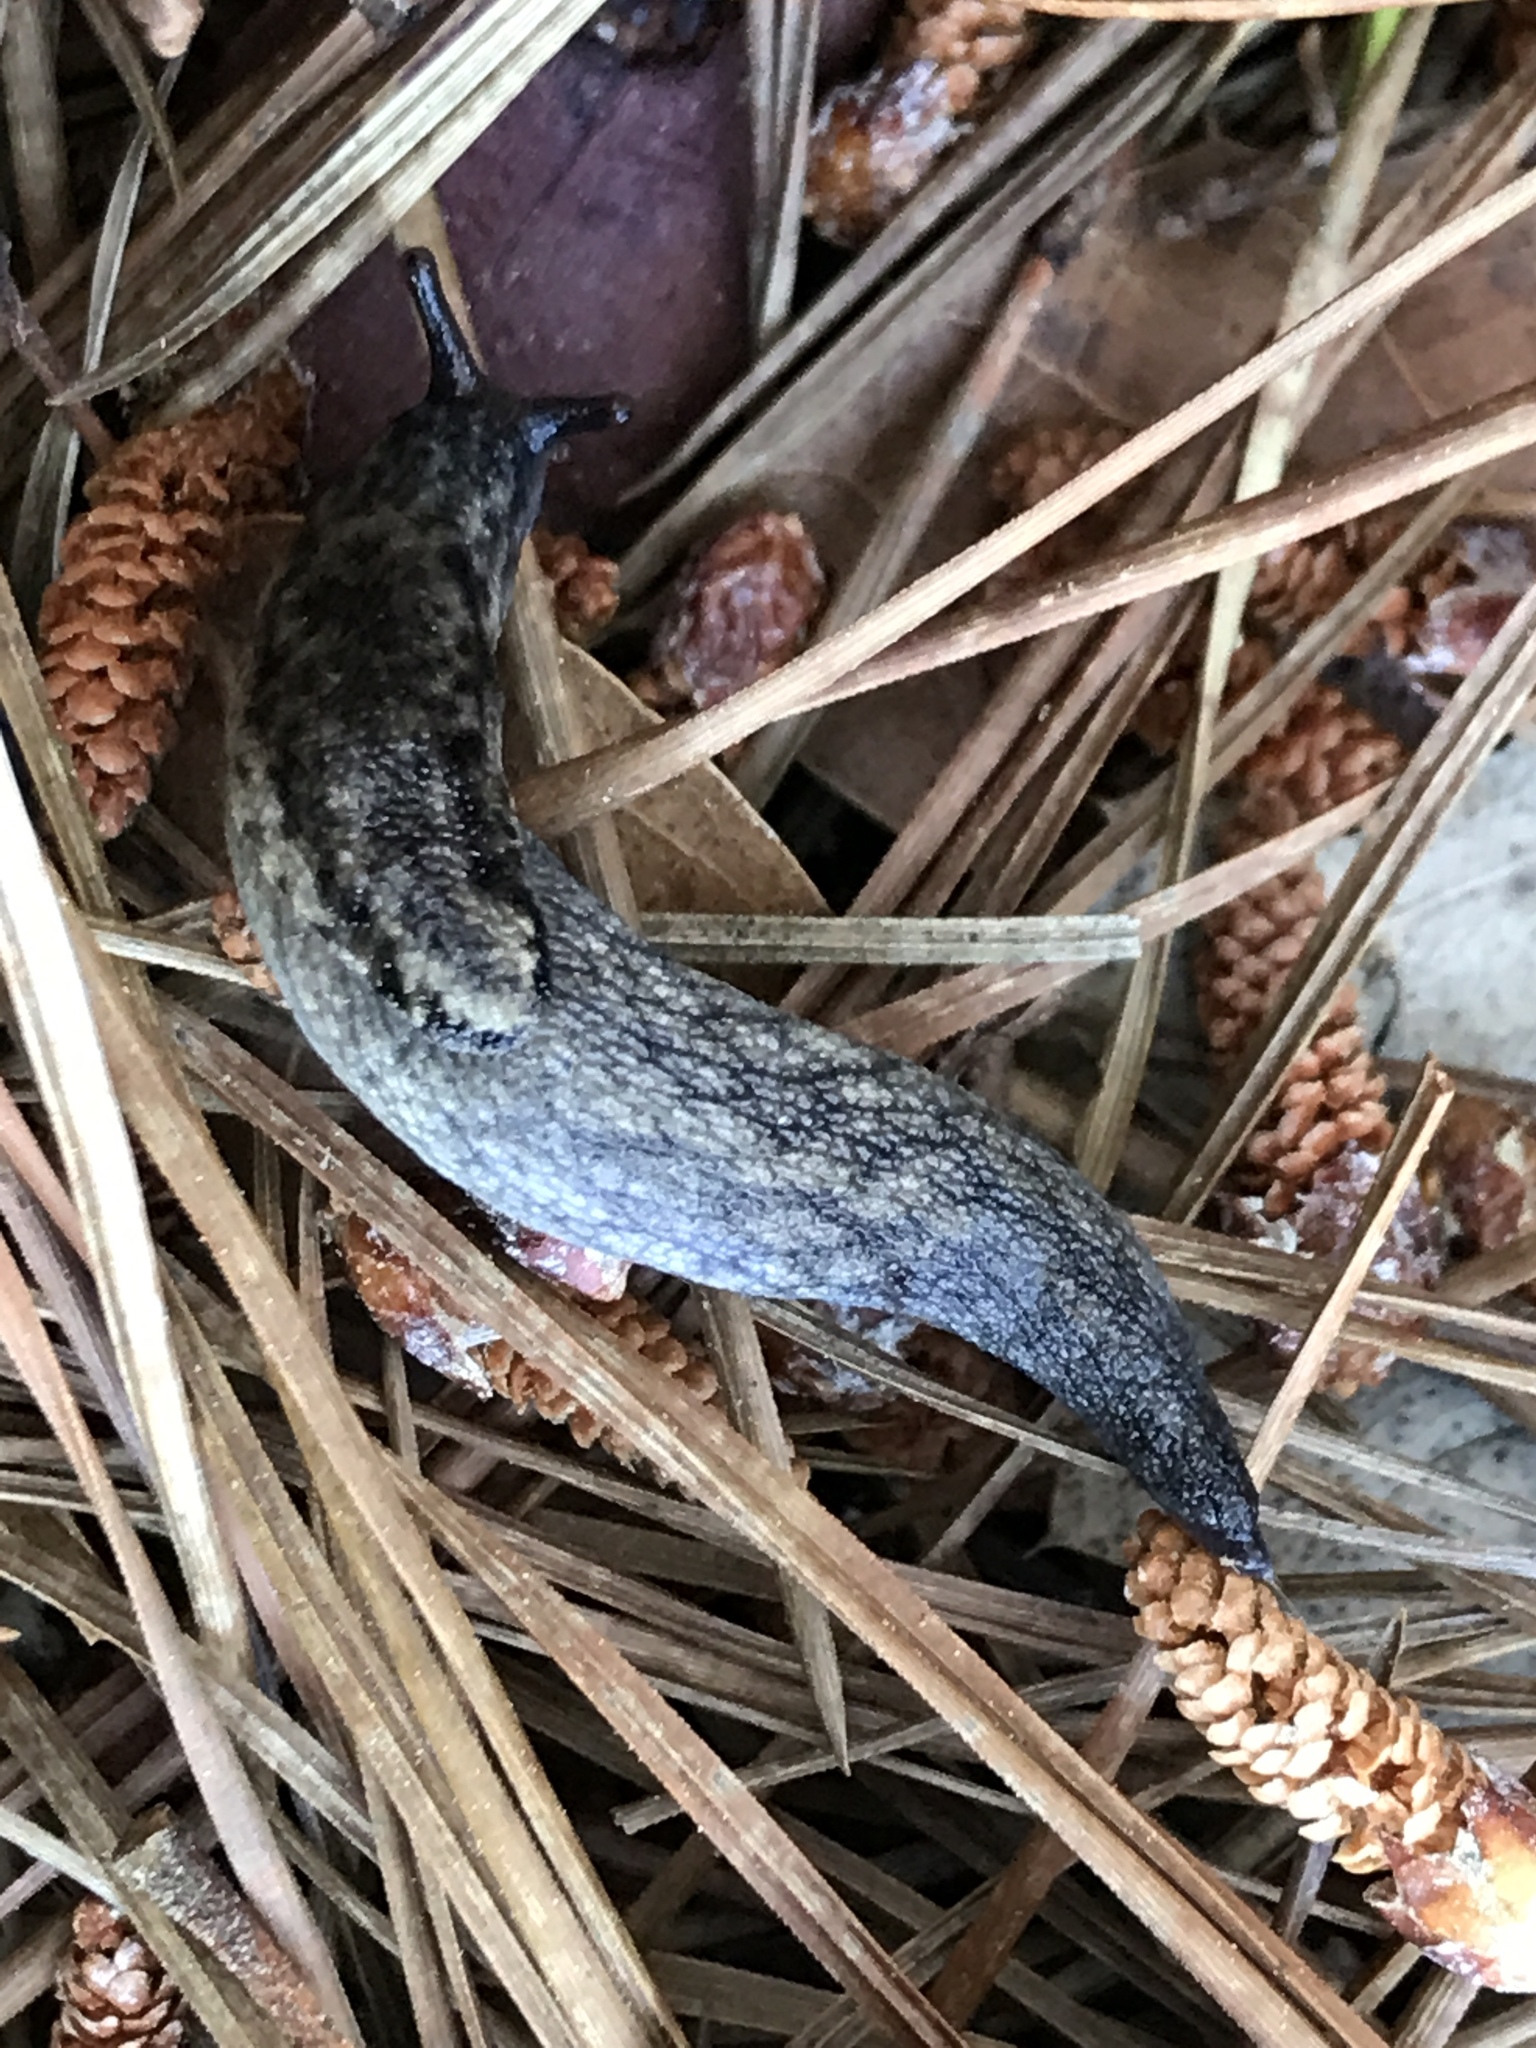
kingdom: Animalia
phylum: Mollusca
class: Gastropoda
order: Stylommatophora
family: Ariolimacidae
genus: Prophysaon
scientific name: Prophysaon andersonii
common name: Reticulate taildropper
